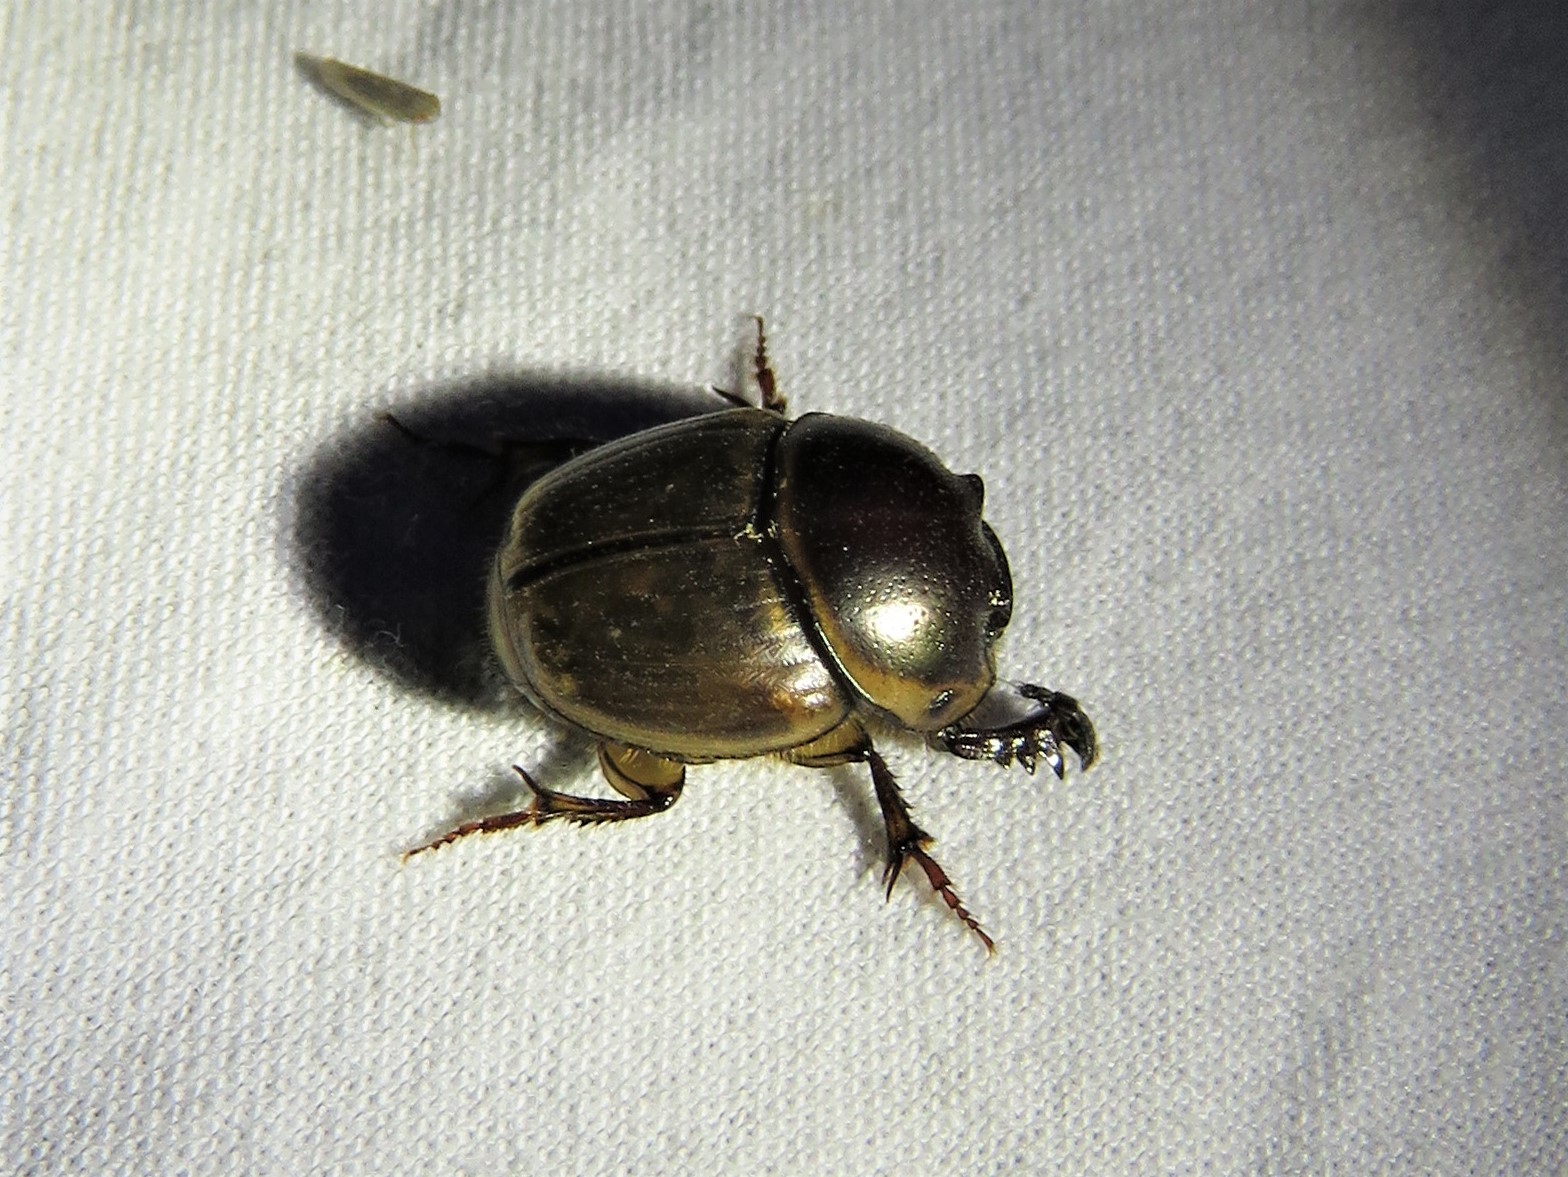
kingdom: Animalia
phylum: Arthropoda
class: Insecta
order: Coleoptera
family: Scarabaeidae
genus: Digitonthophagus
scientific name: Digitonthophagus gazella
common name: Brown dung beetle
